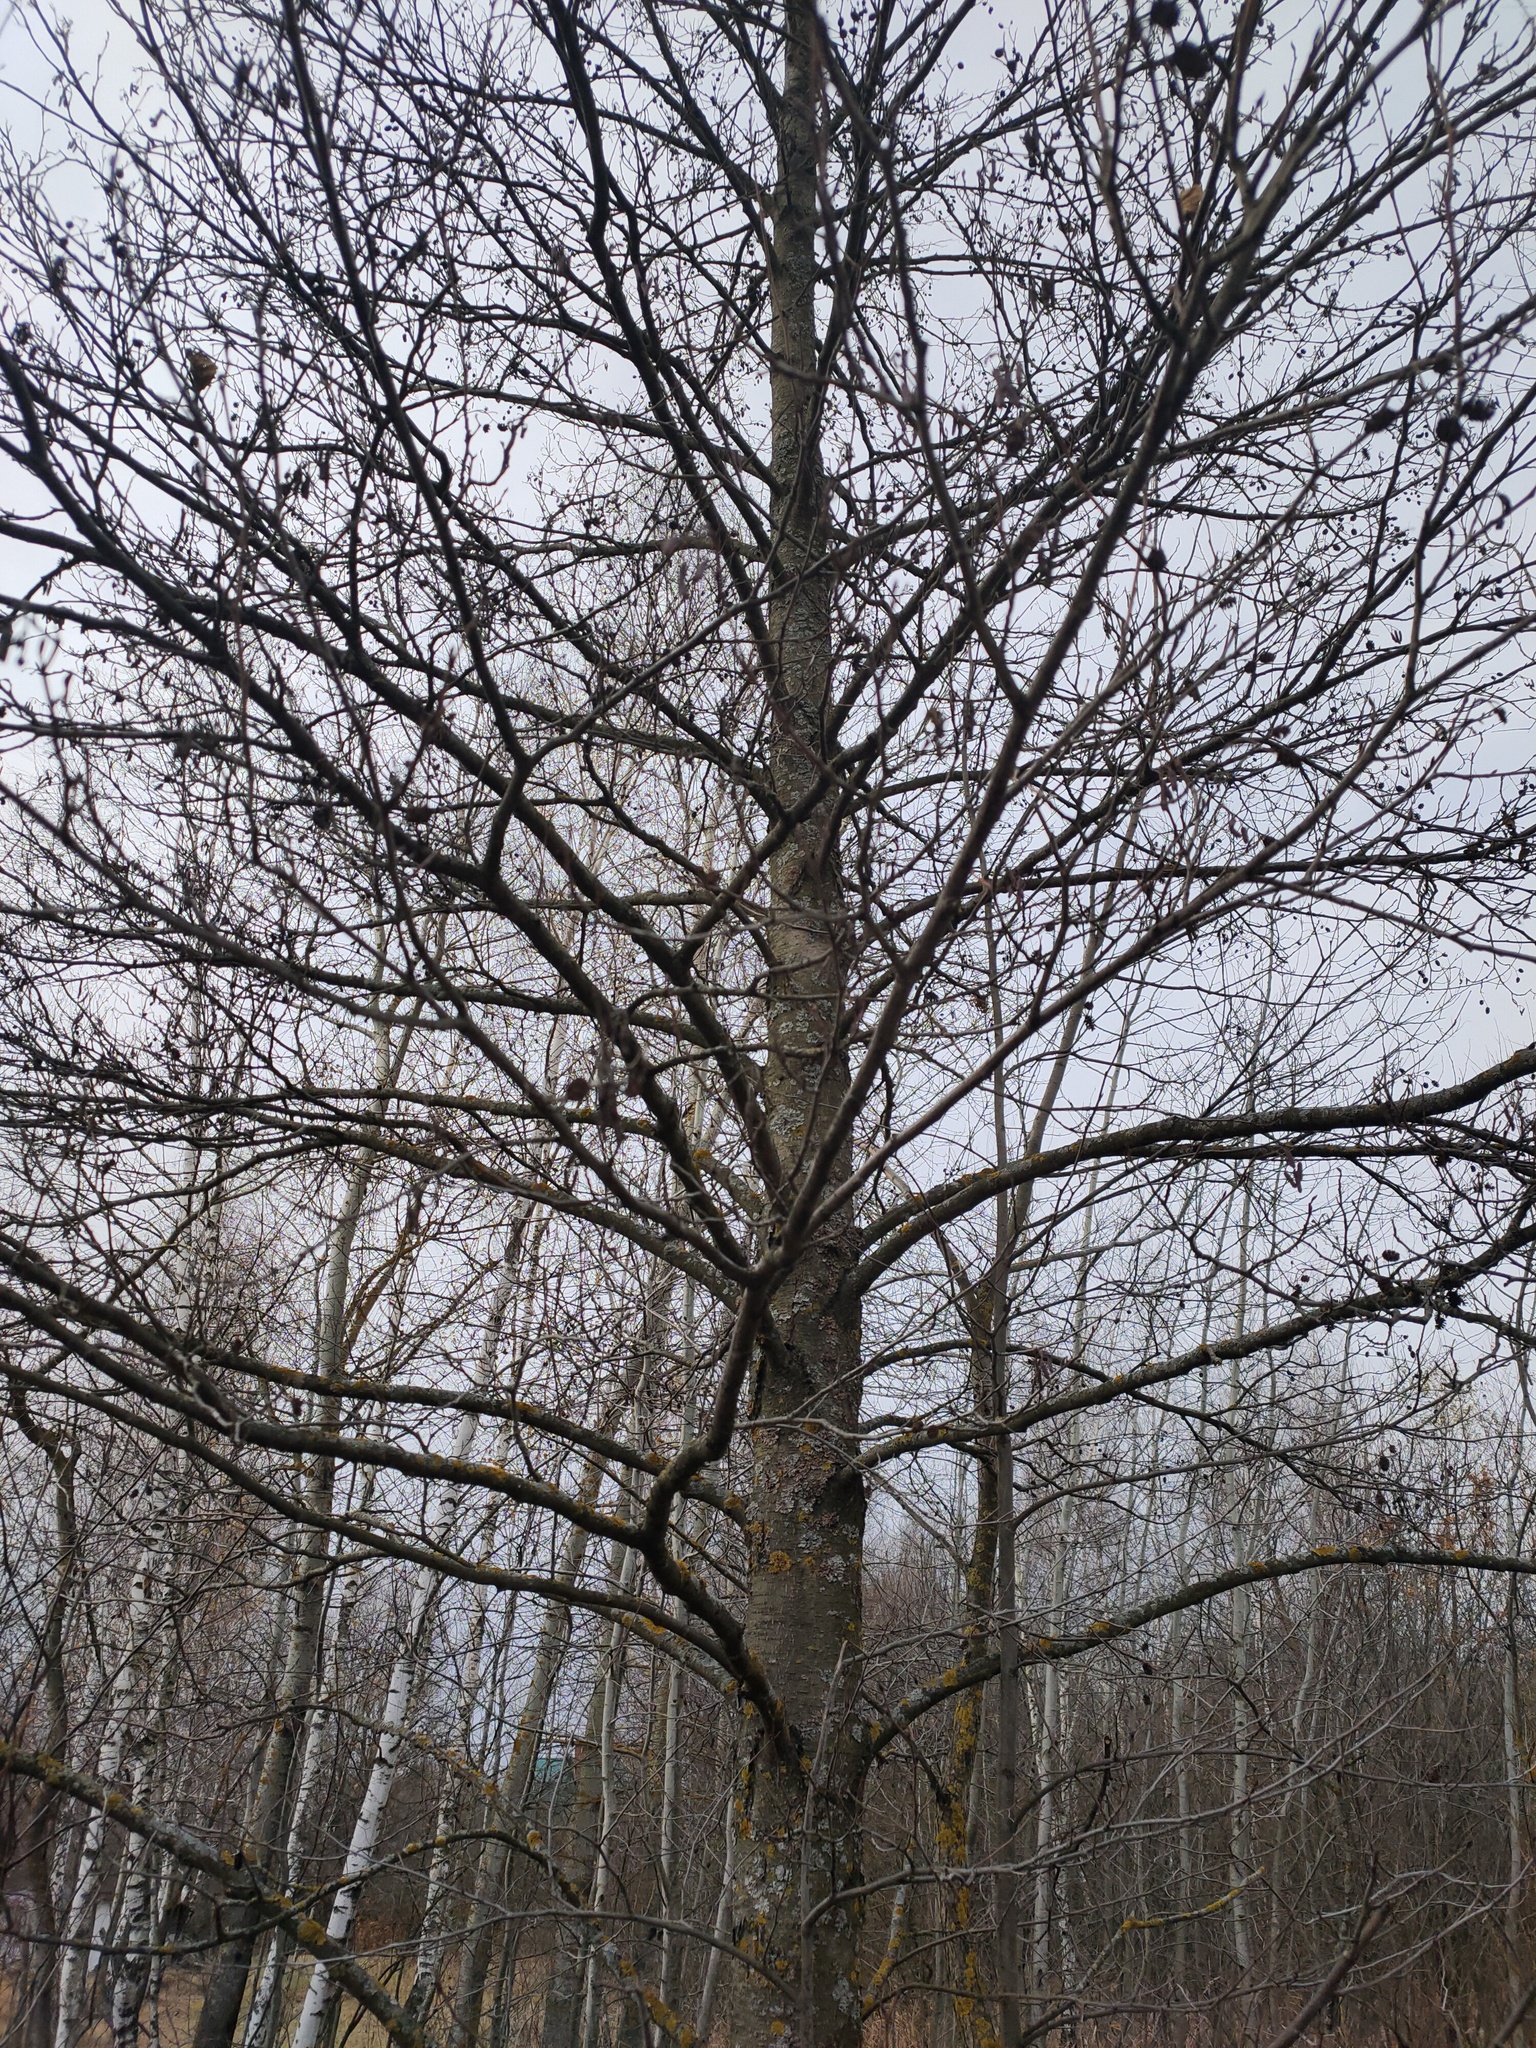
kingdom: Plantae
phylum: Tracheophyta
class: Magnoliopsida
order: Fagales
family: Betulaceae
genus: Alnus
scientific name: Alnus glutinosa
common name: Black alder
